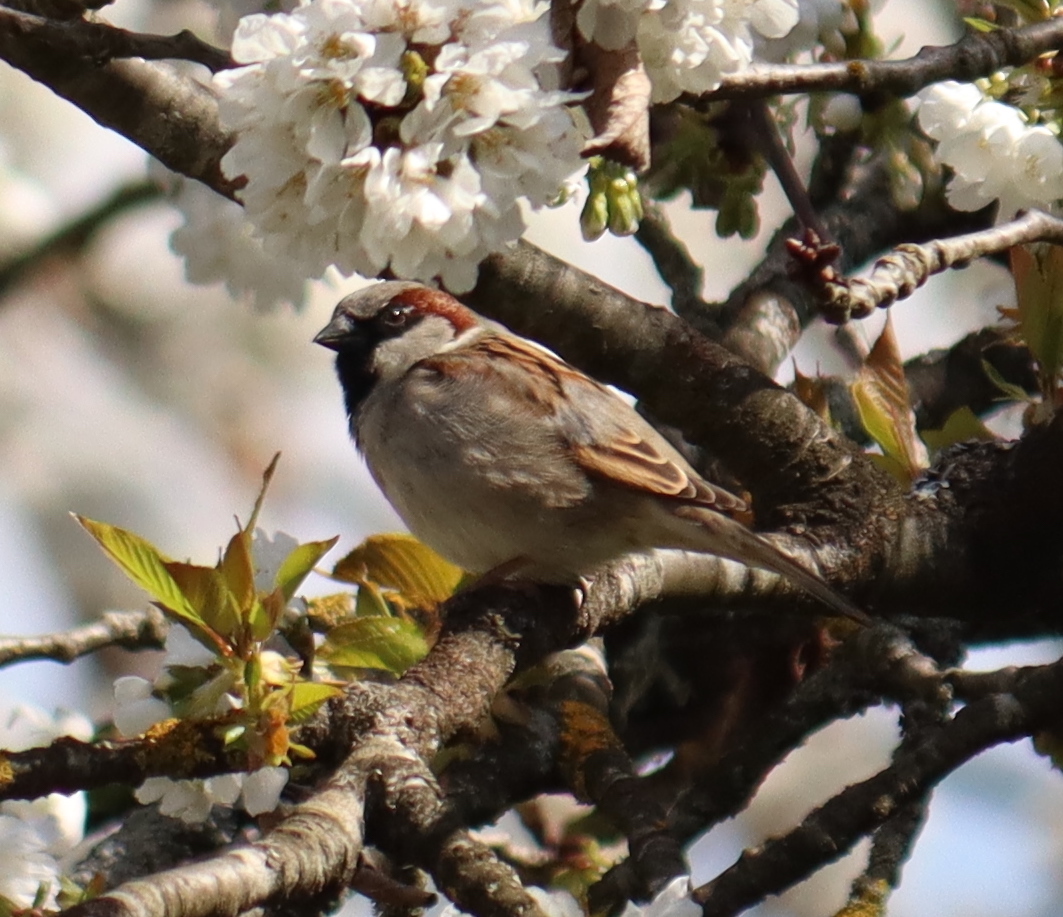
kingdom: Animalia
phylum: Chordata
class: Aves
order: Passeriformes
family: Passeridae
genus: Passer
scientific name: Passer domesticus
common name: House sparrow
